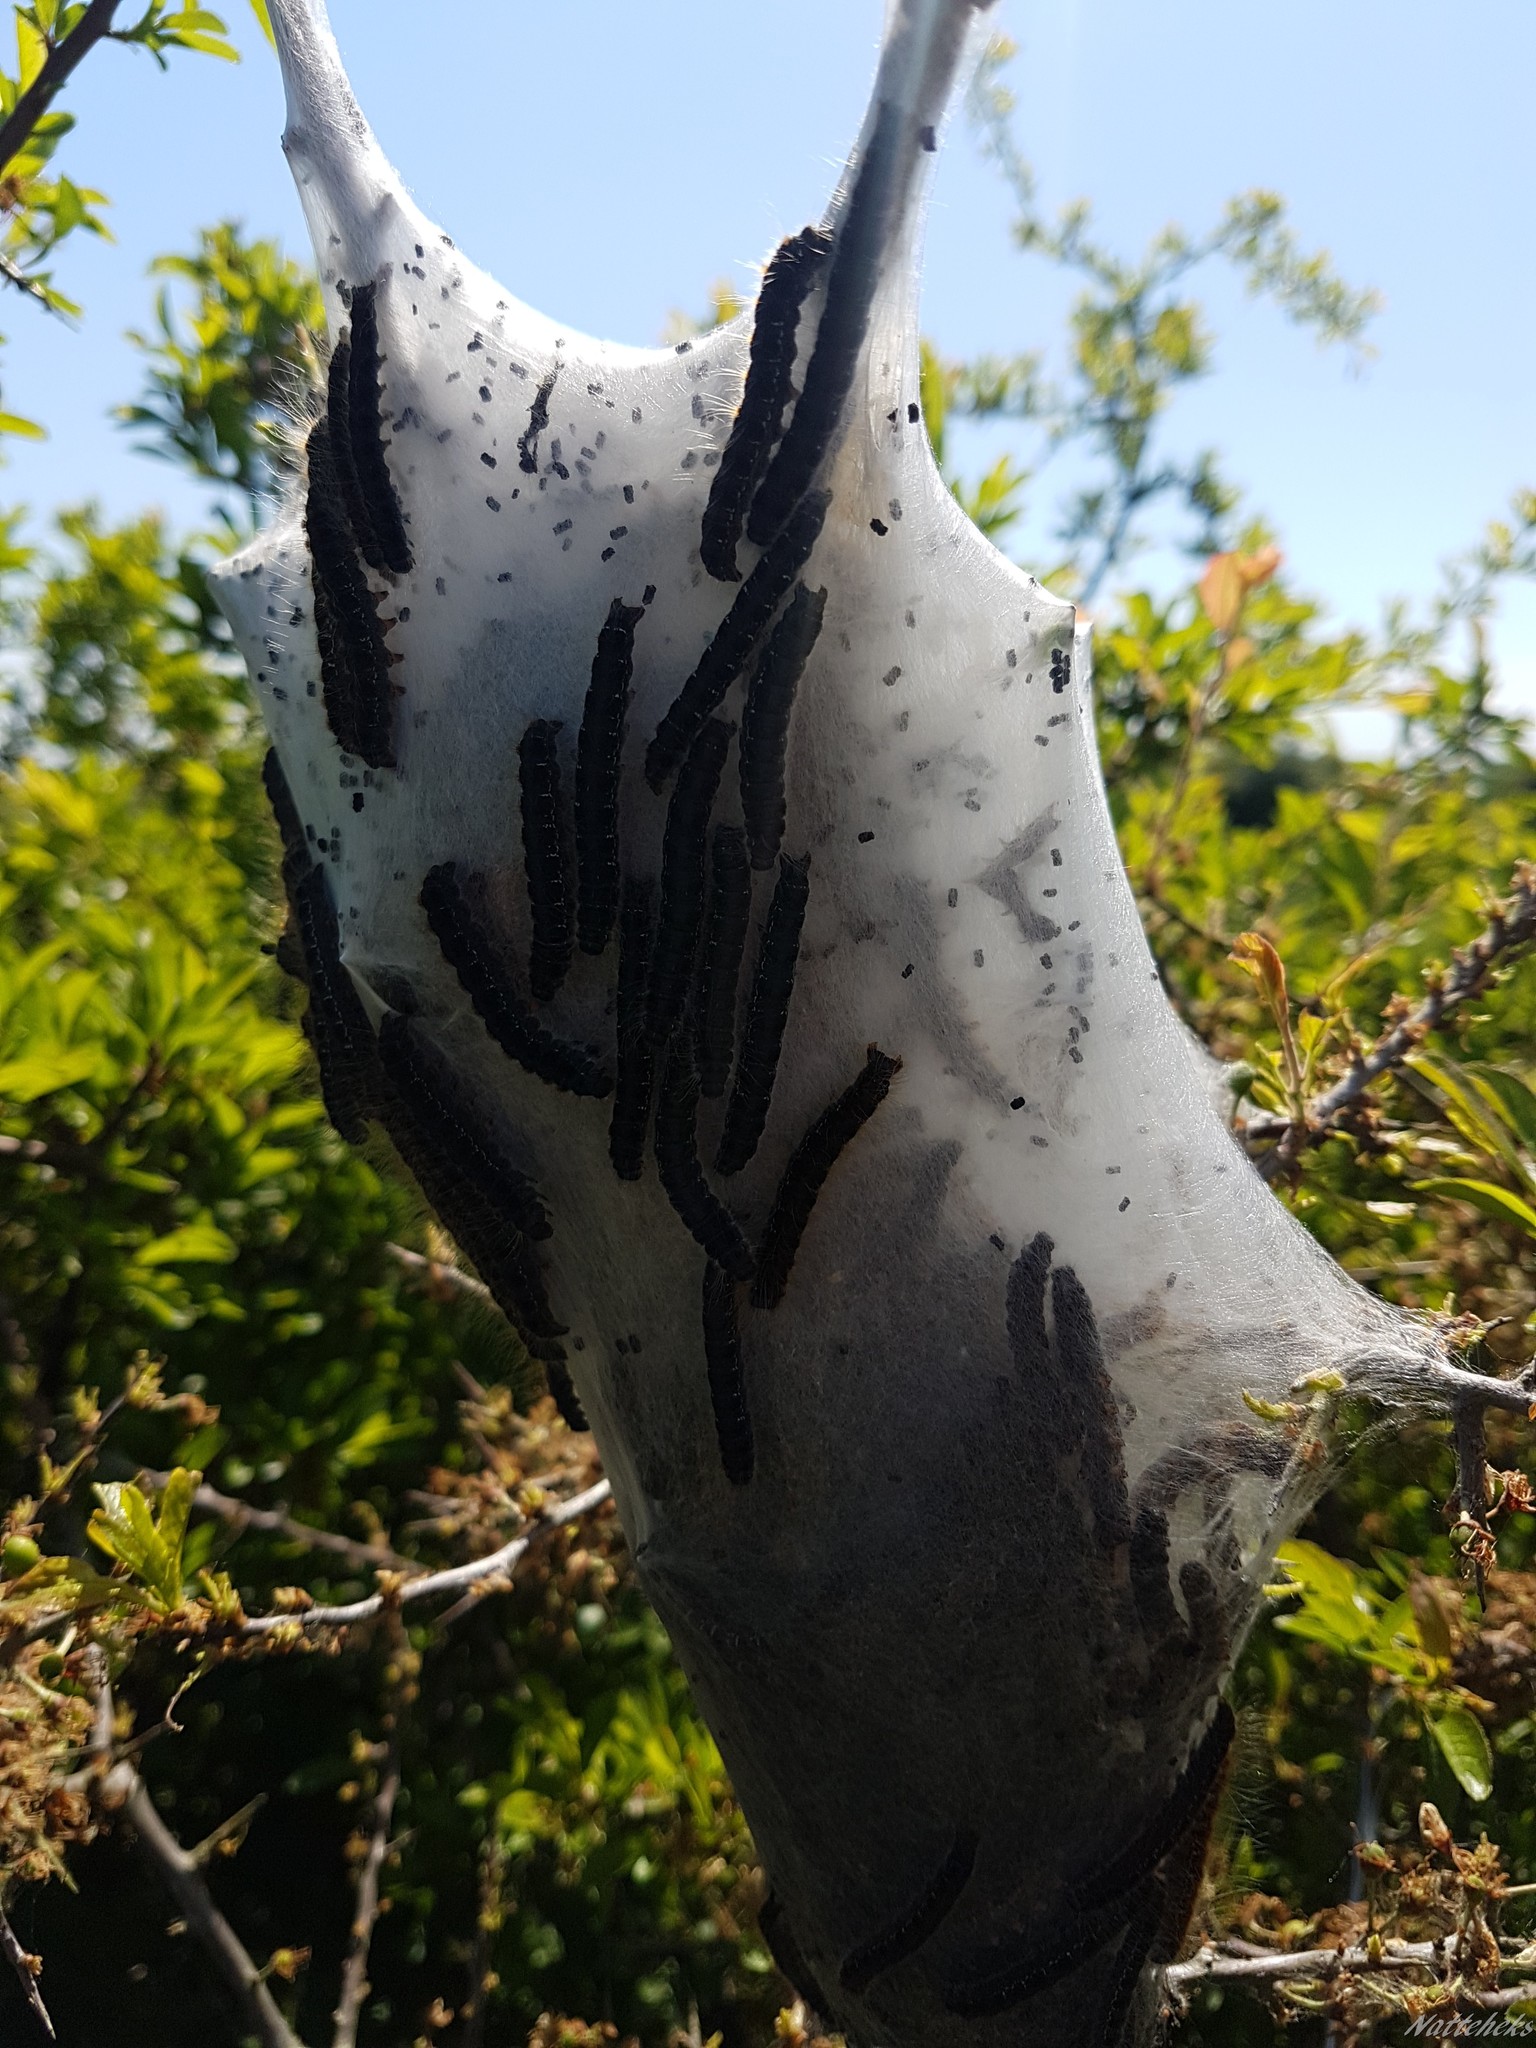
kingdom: Animalia
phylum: Arthropoda
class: Insecta
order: Lepidoptera
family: Lasiocampidae
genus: Eriogaster
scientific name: Eriogaster lanestris
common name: Small eggar
